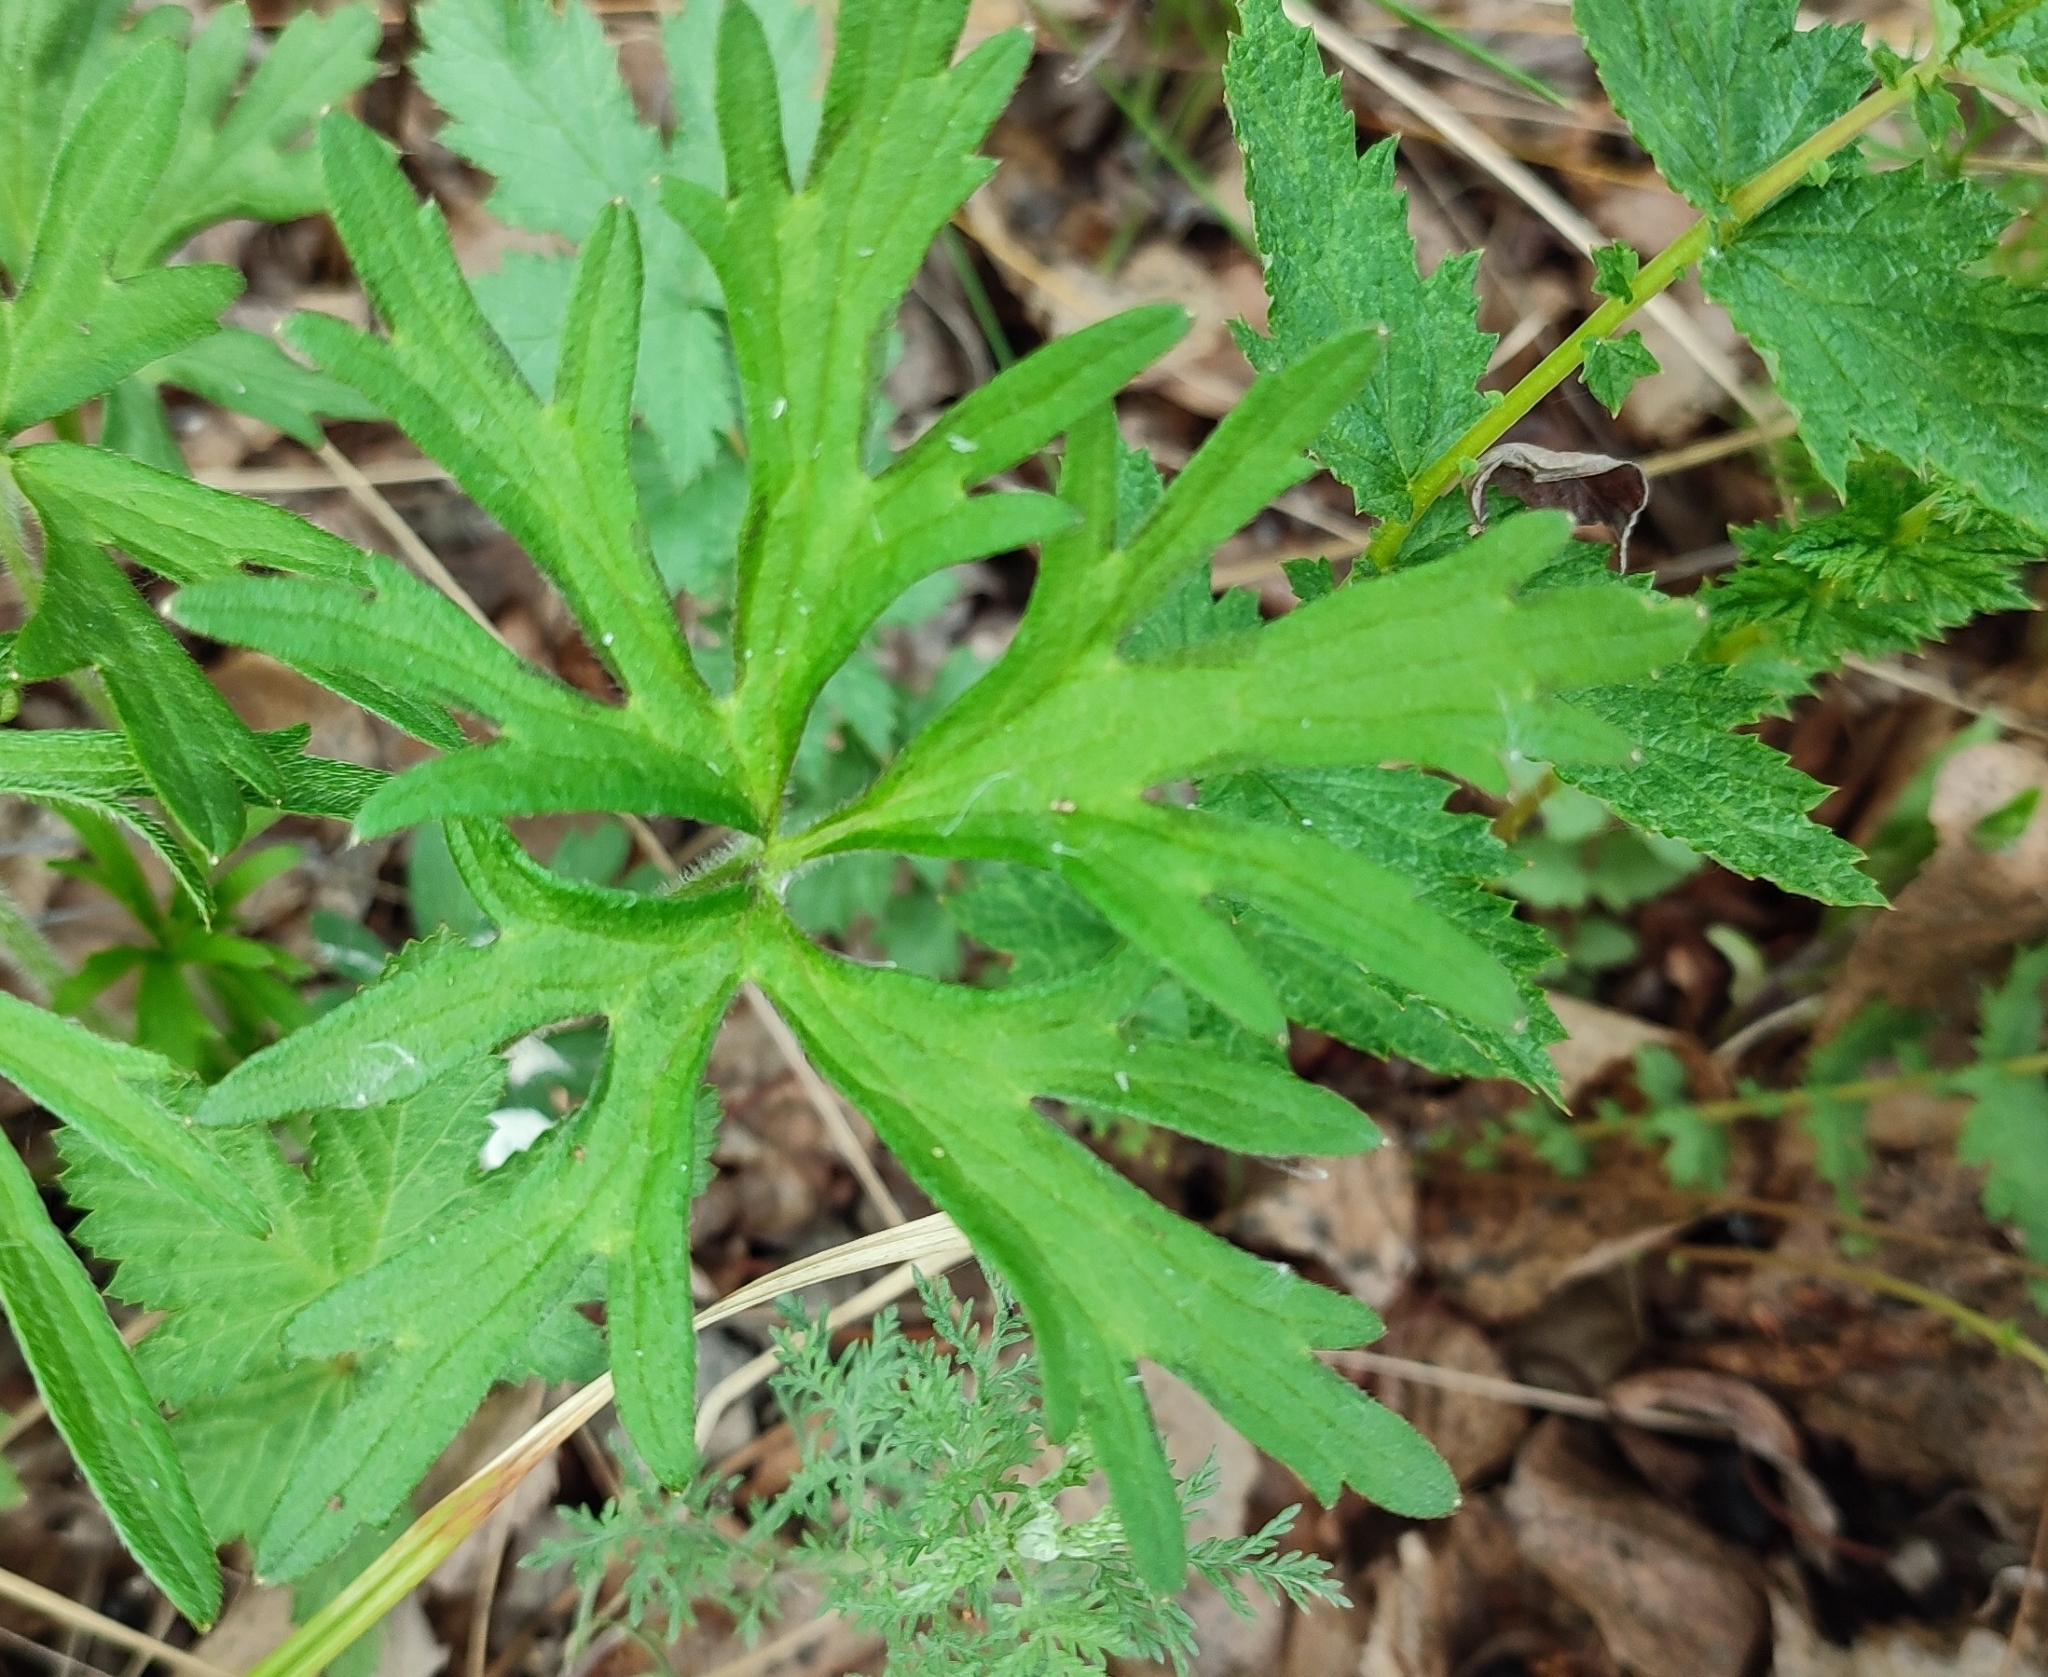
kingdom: Plantae
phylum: Tracheophyta
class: Magnoliopsida
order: Ranunculales
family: Ranunculaceae
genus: Ranunculus
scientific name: Ranunculus polyanthemos
